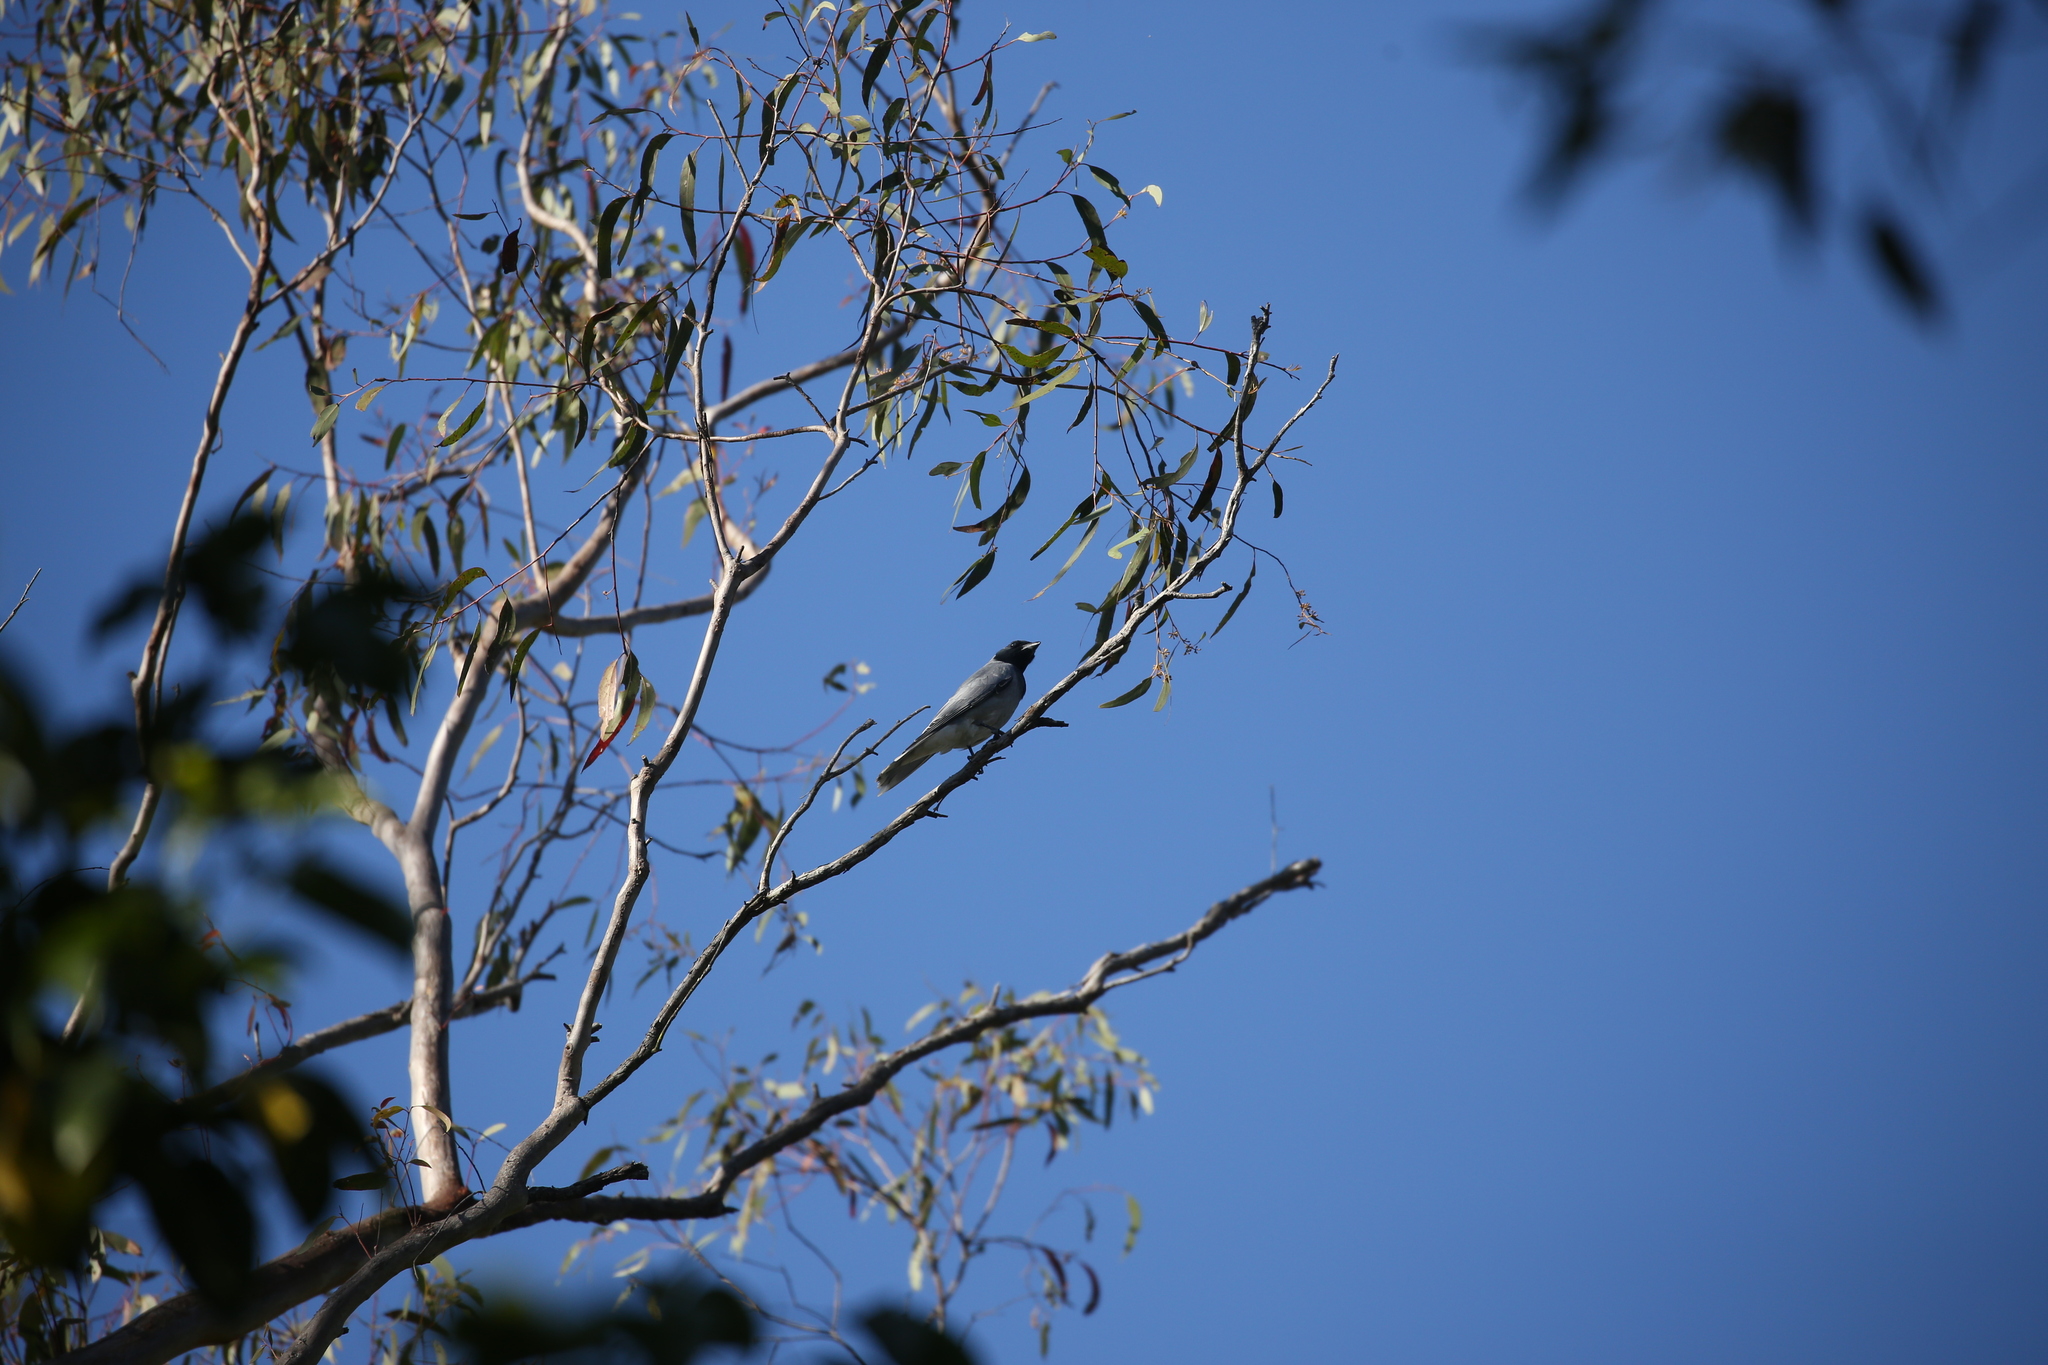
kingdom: Animalia
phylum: Chordata
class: Aves
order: Passeriformes
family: Campephagidae
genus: Coracina
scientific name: Coracina novaehollandiae
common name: Black-faced cuckooshrike
